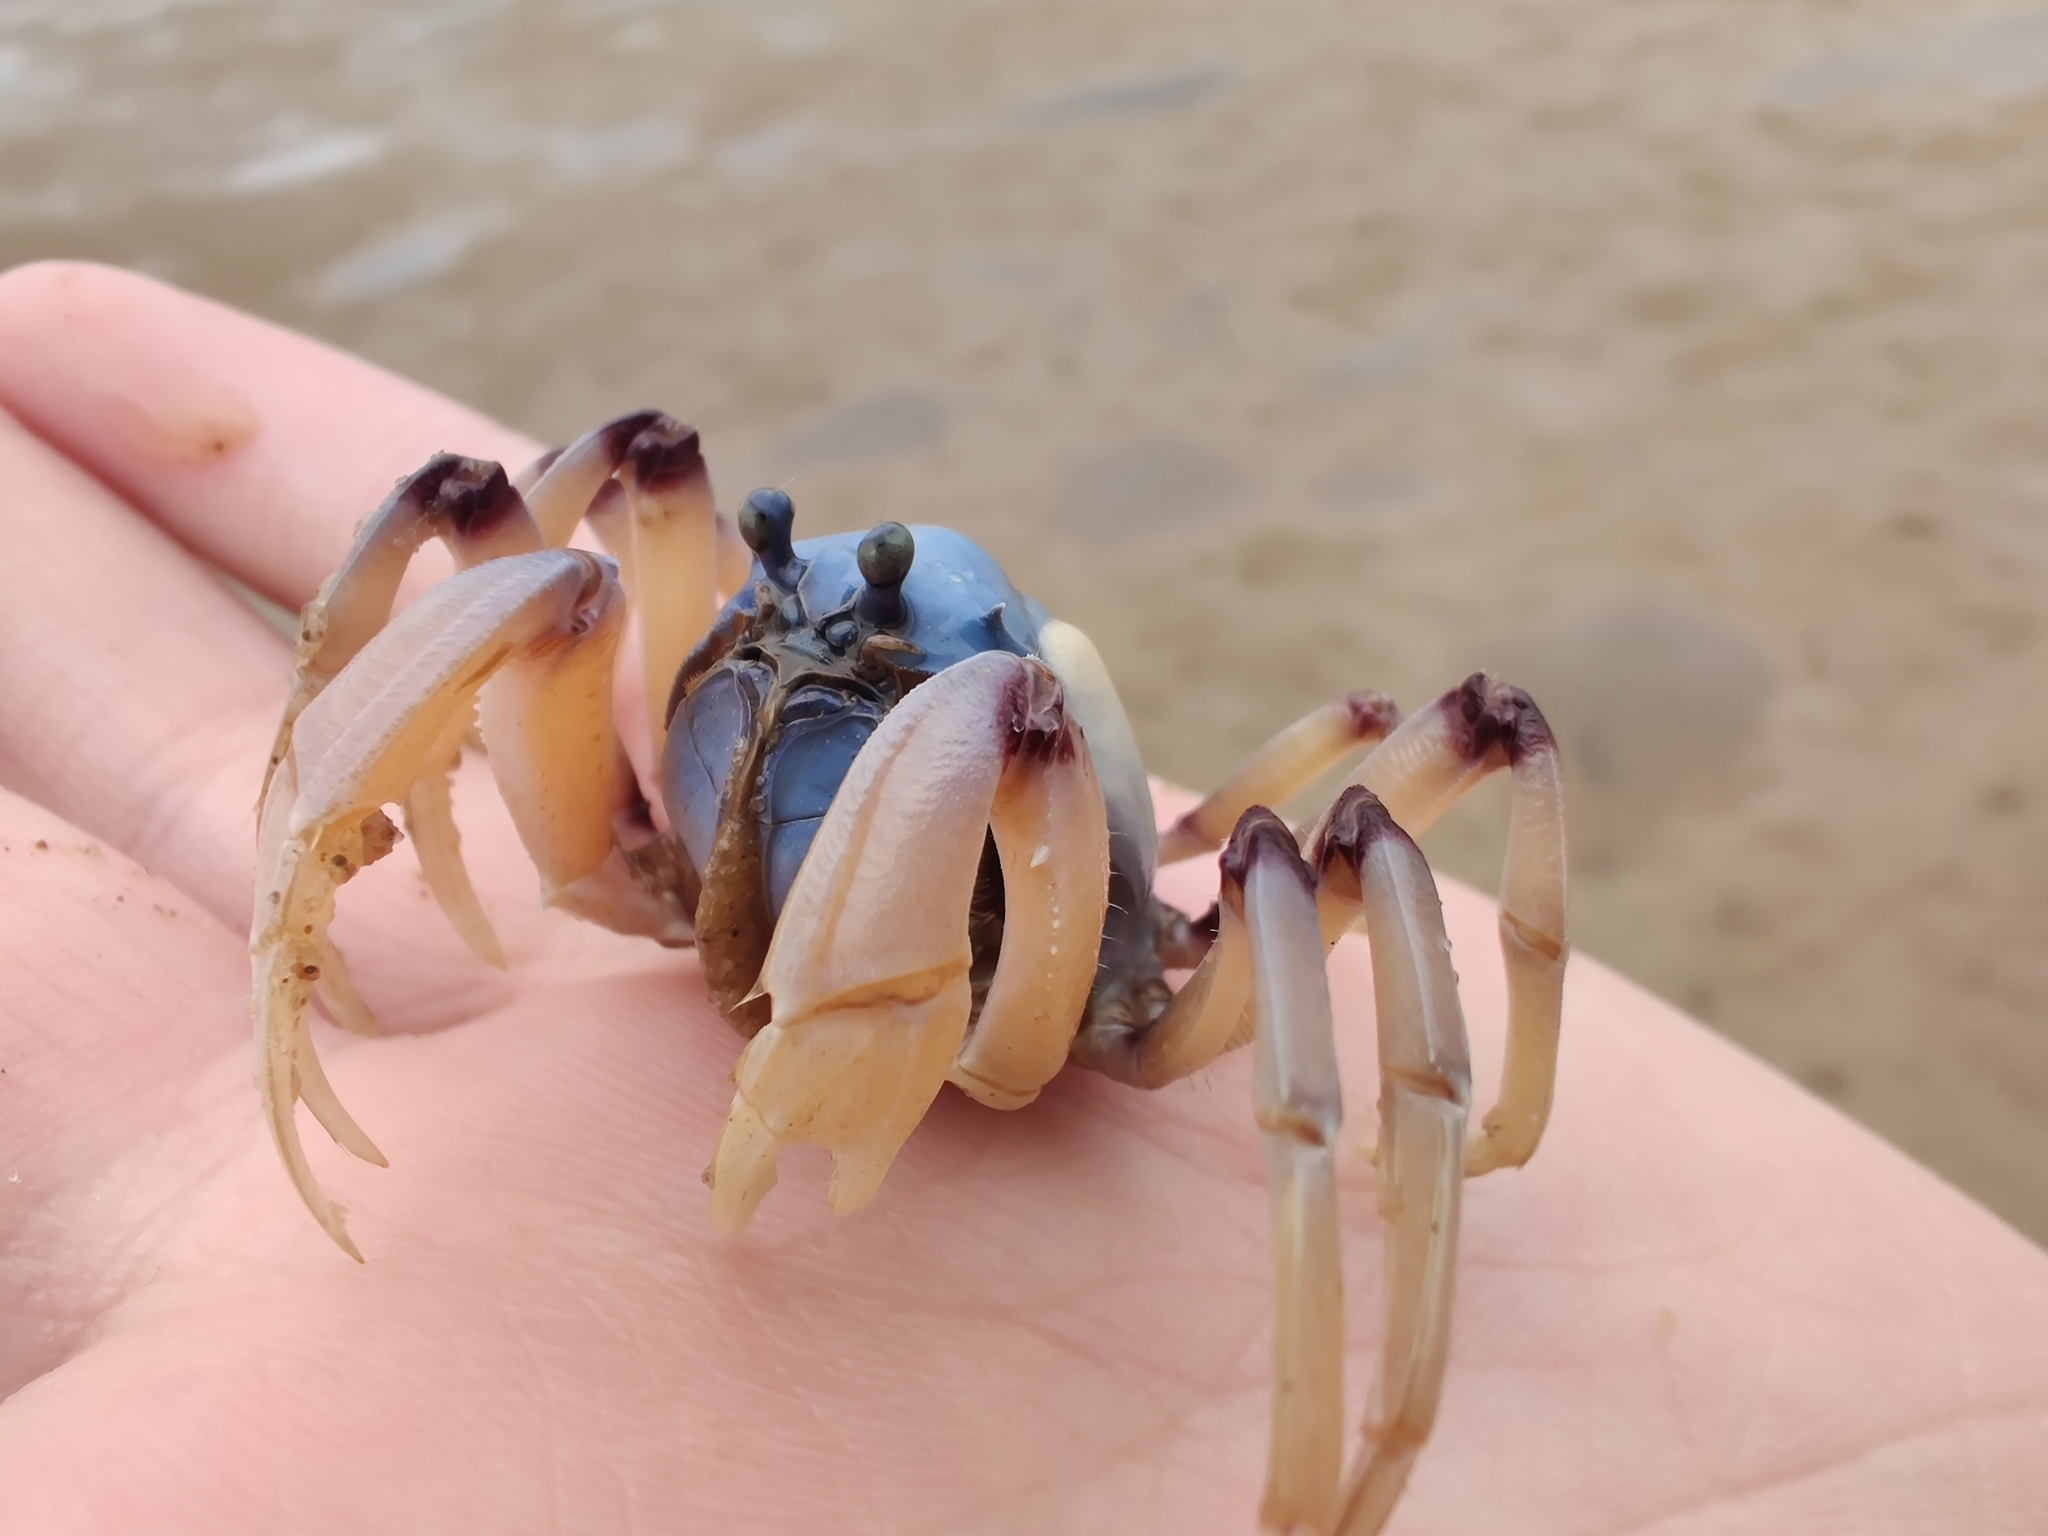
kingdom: Animalia
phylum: Arthropoda
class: Malacostraca
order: Decapoda
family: Mictyridae
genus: Mictyris
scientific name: Mictyris longicarpus
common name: Light-blue soldier crab
